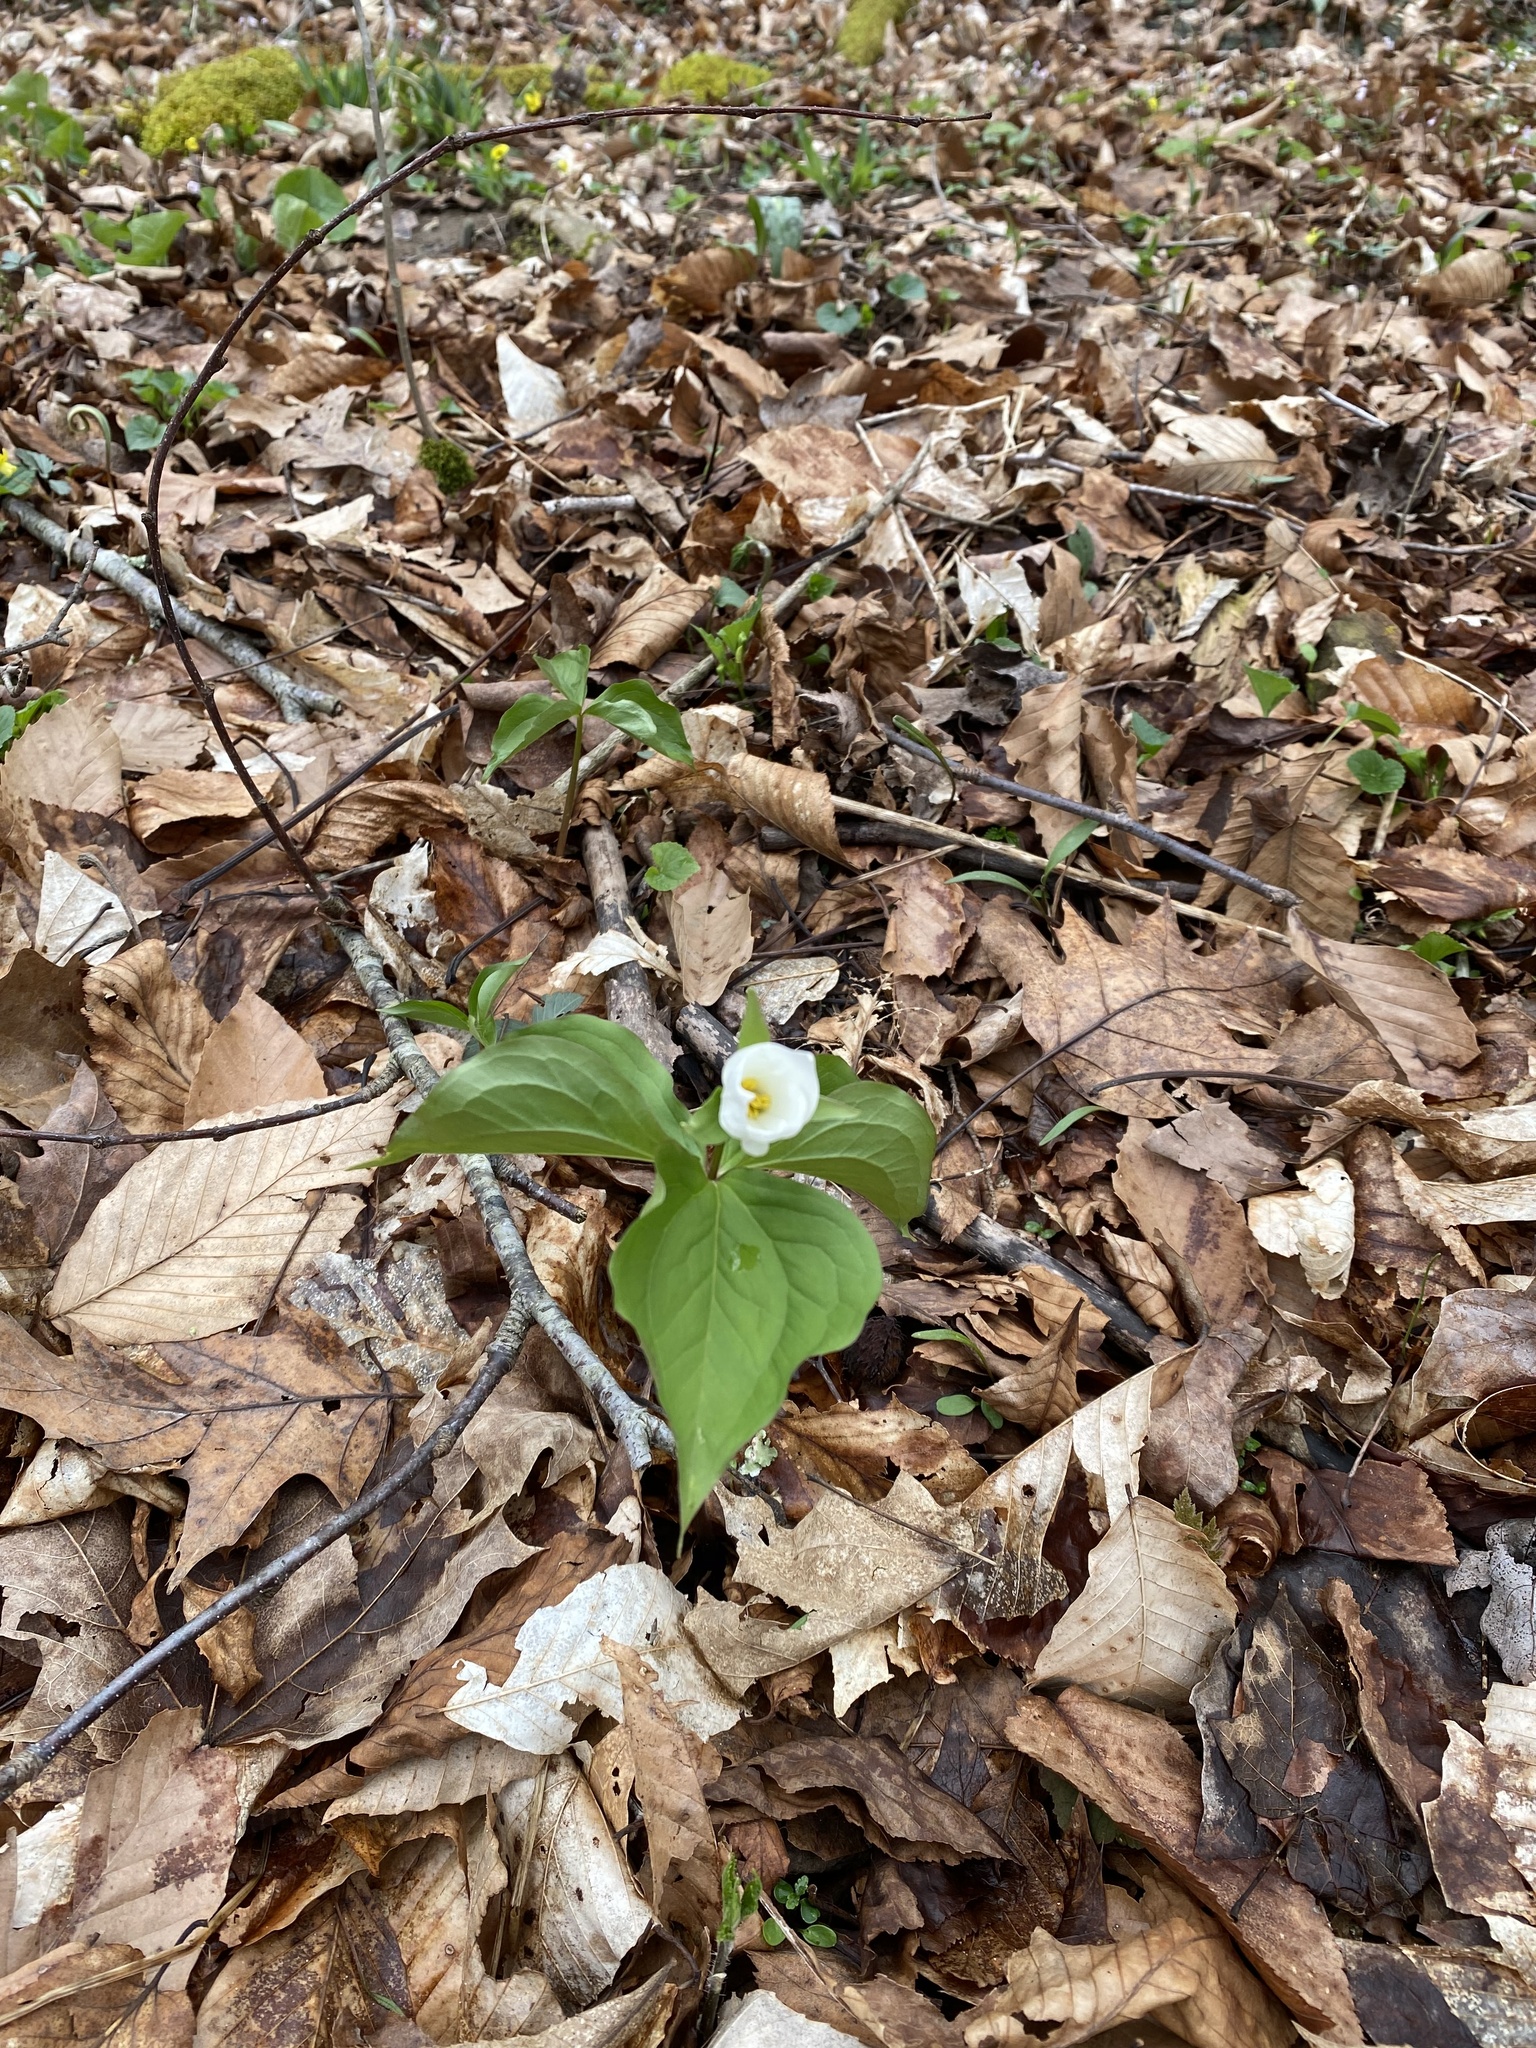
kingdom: Plantae
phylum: Tracheophyta
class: Liliopsida
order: Liliales
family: Melanthiaceae
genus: Trillium
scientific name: Trillium grandiflorum
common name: Great white trillium
